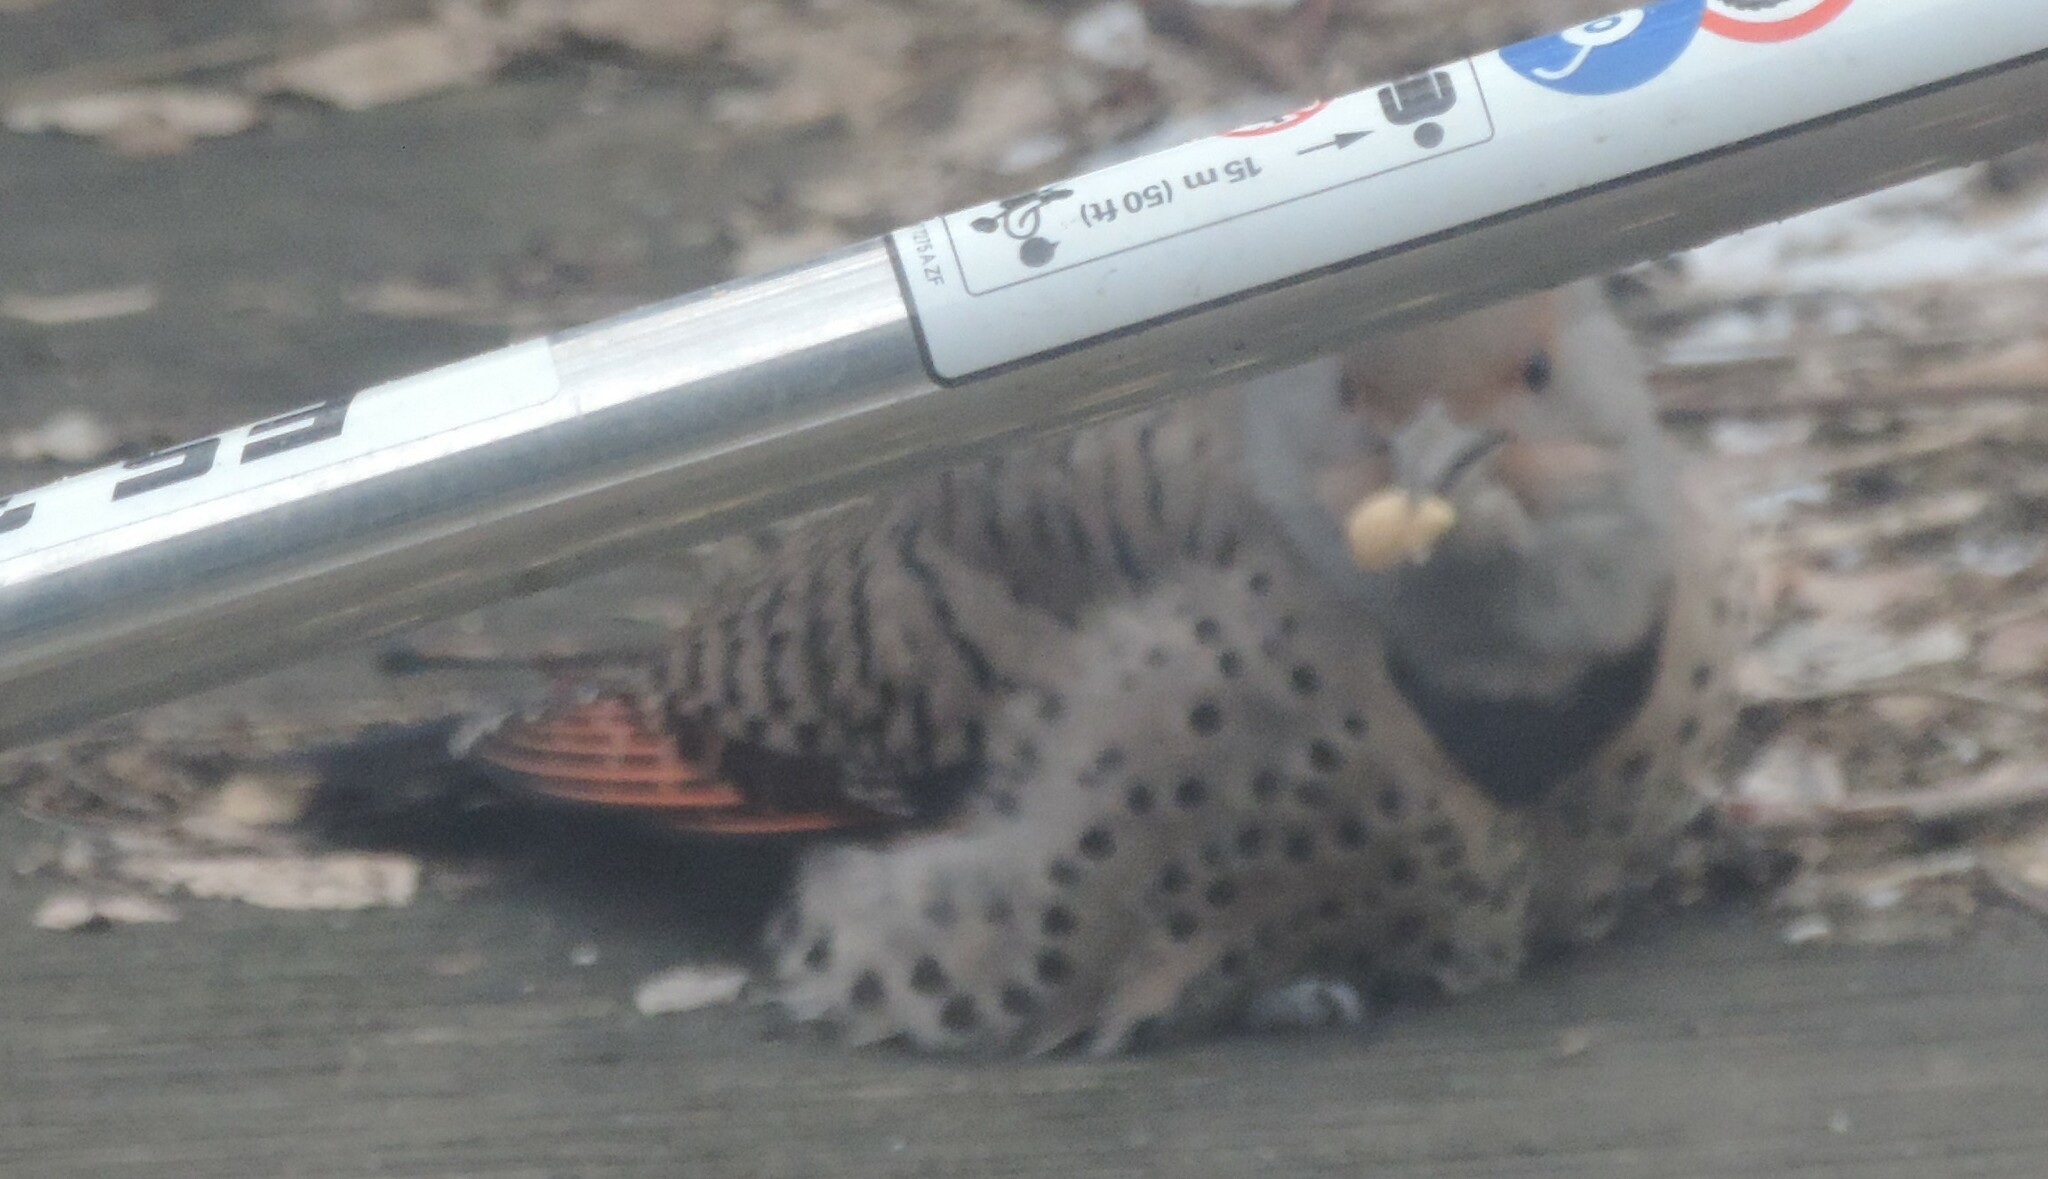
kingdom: Animalia
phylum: Chordata
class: Aves
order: Piciformes
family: Picidae
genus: Colaptes
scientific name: Colaptes auratus
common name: Northern flicker
